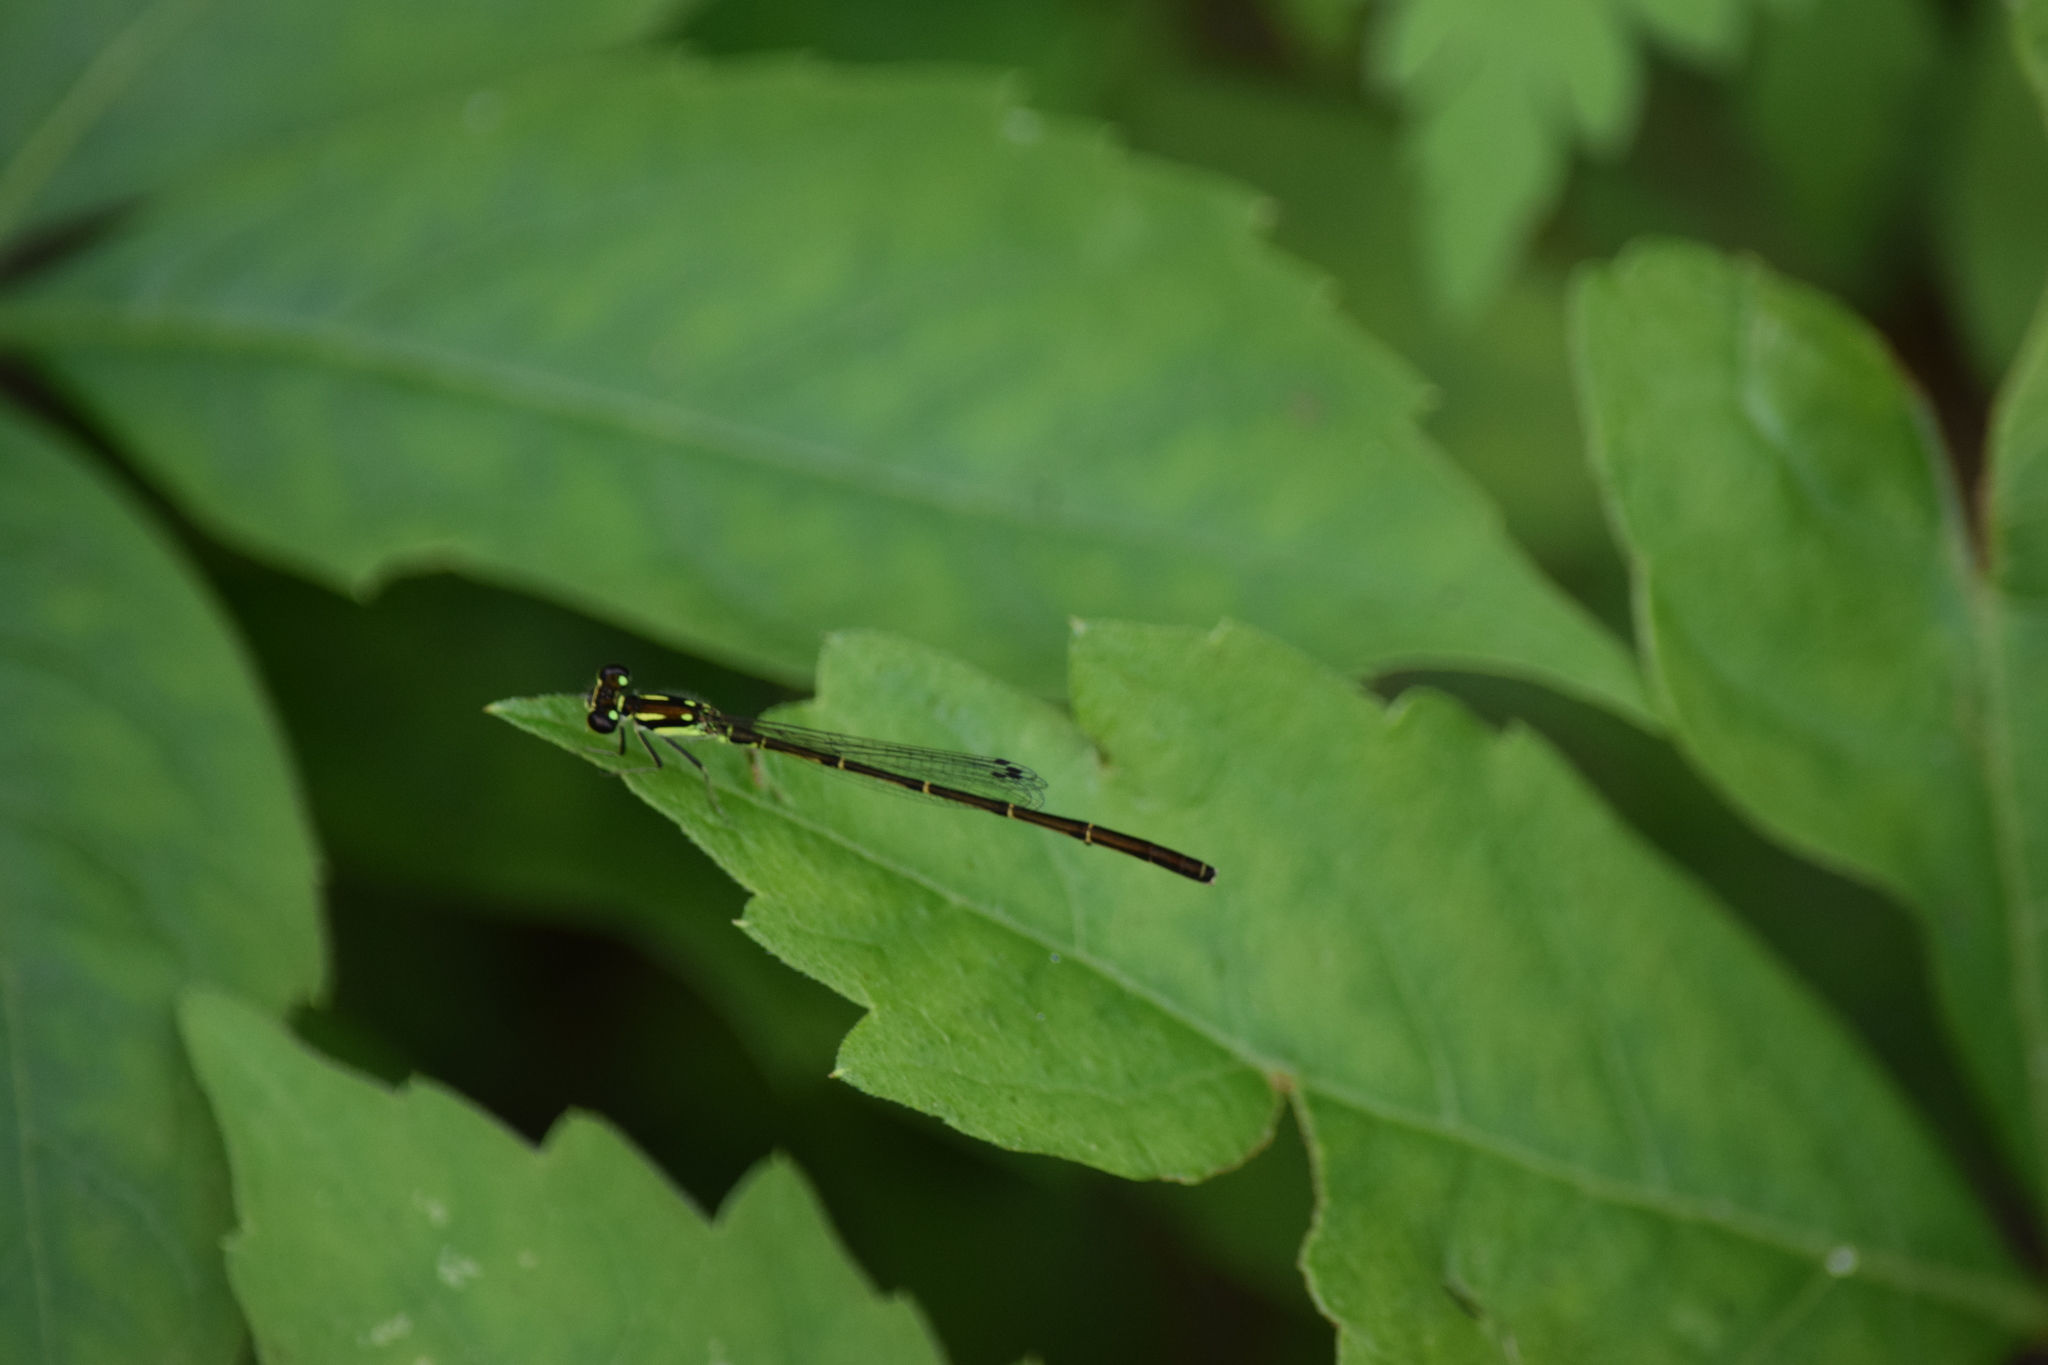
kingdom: Animalia
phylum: Arthropoda
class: Insecta
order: Odonata
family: Coenagrionidae
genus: Ischnura
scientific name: Ischnura posita
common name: Fragile forktail
